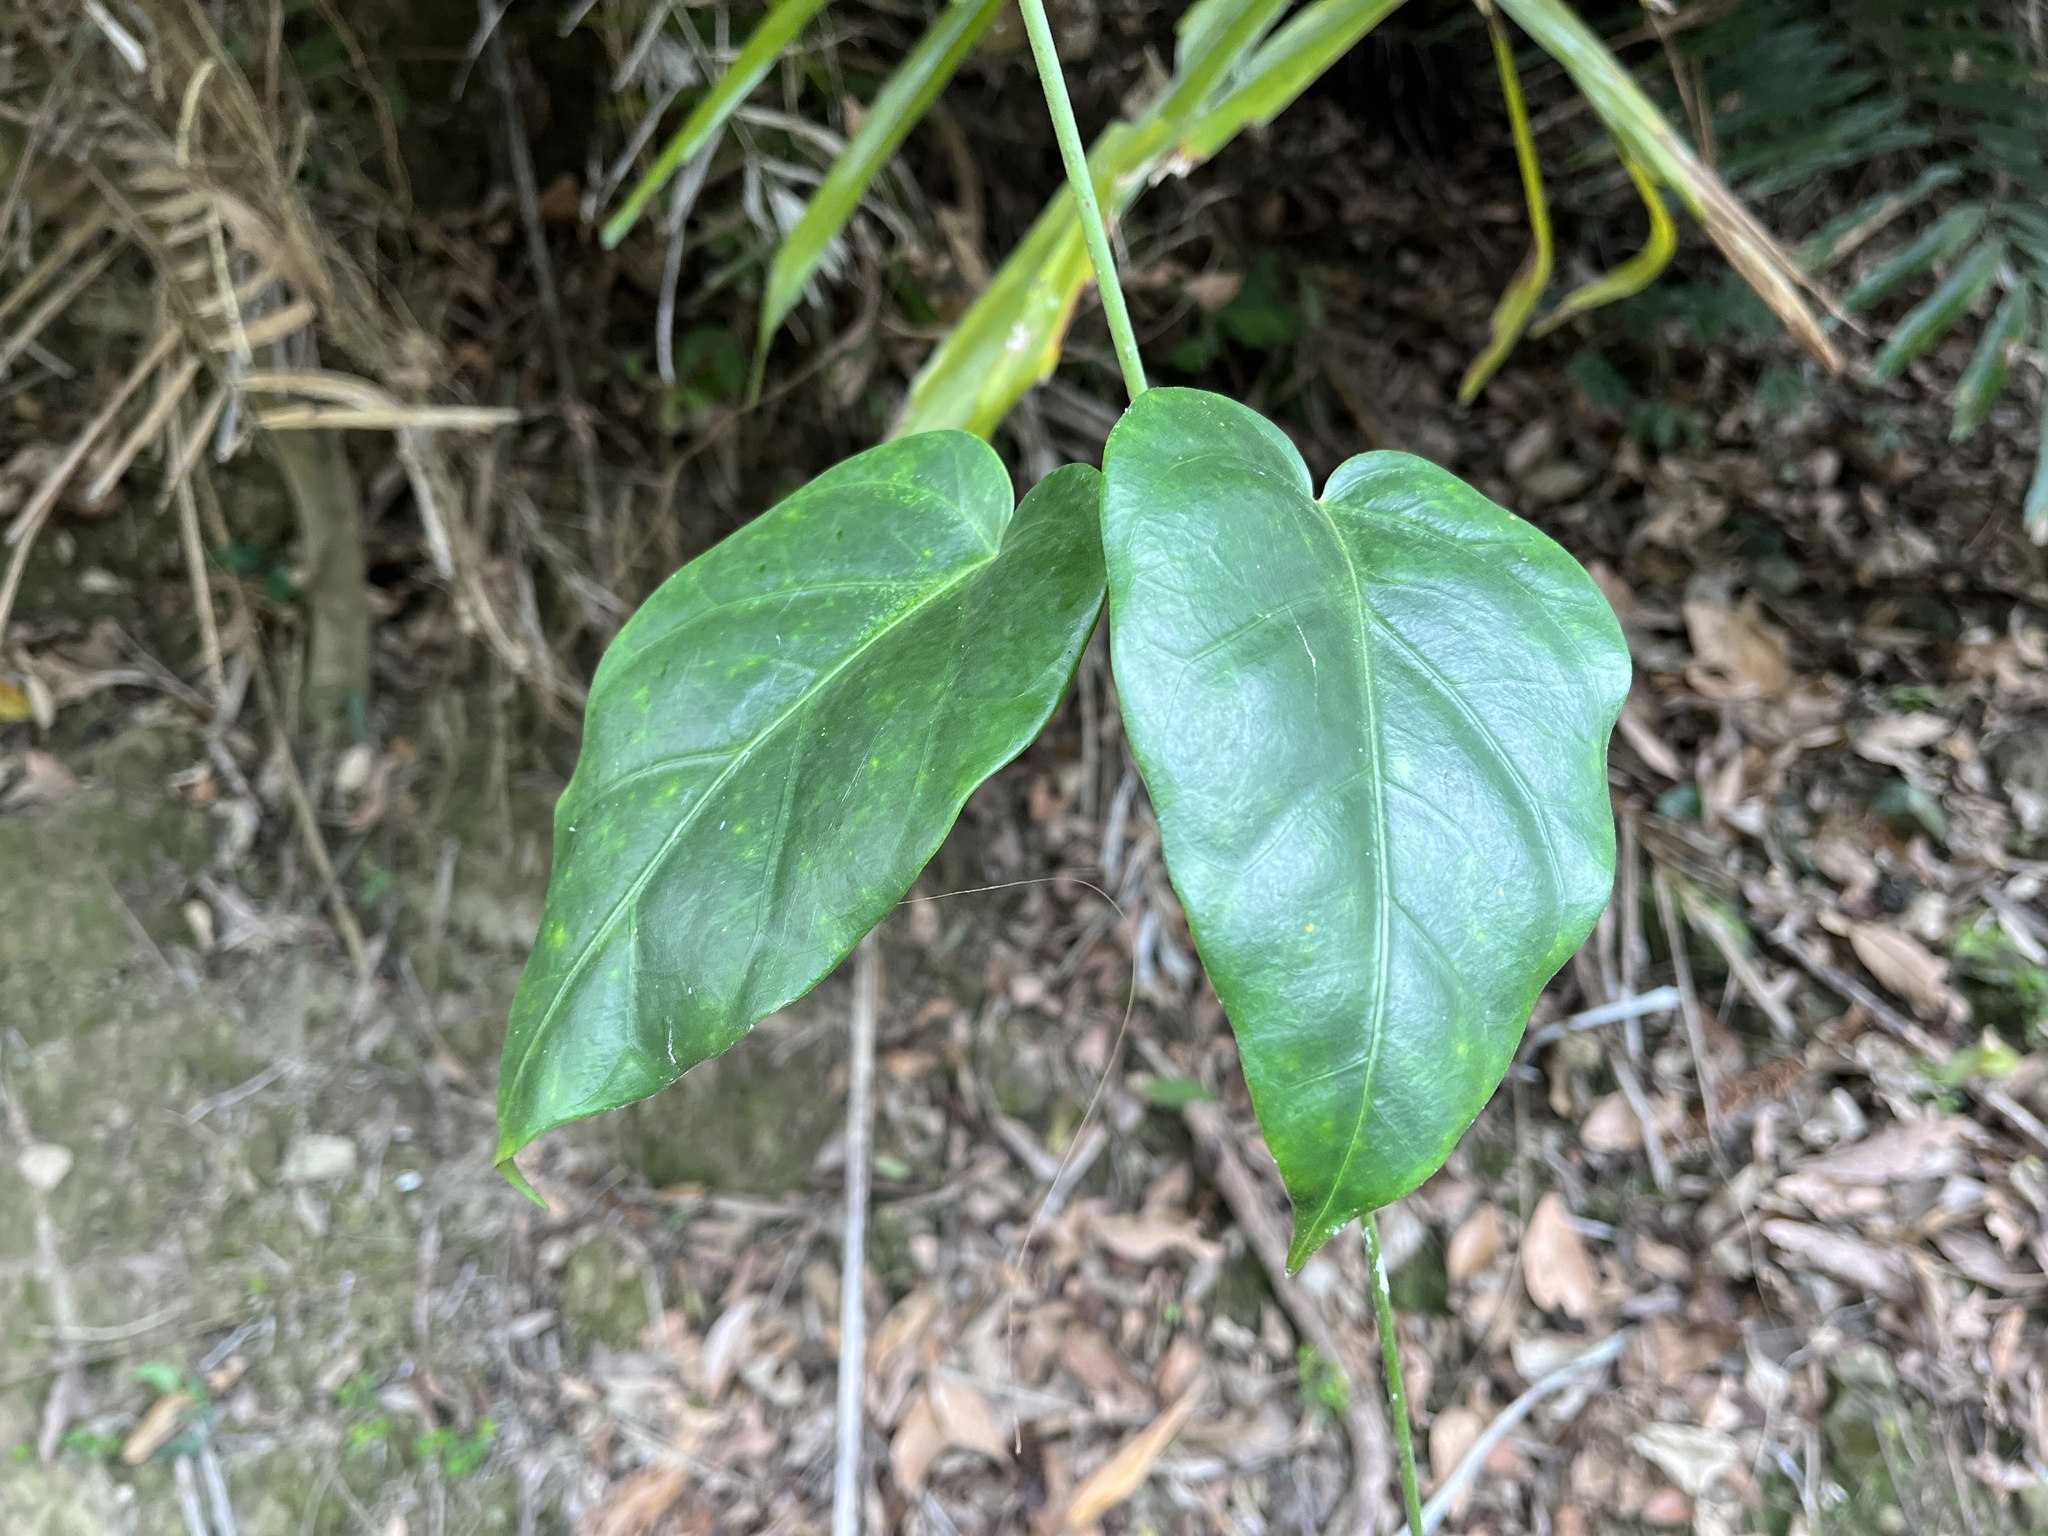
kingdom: Plantae
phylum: Tracheophyta
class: Magnoliopsida
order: Gentianales
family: Apocynaceae
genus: Sinomarsdenia
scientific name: Sinomarsdenia formosana
